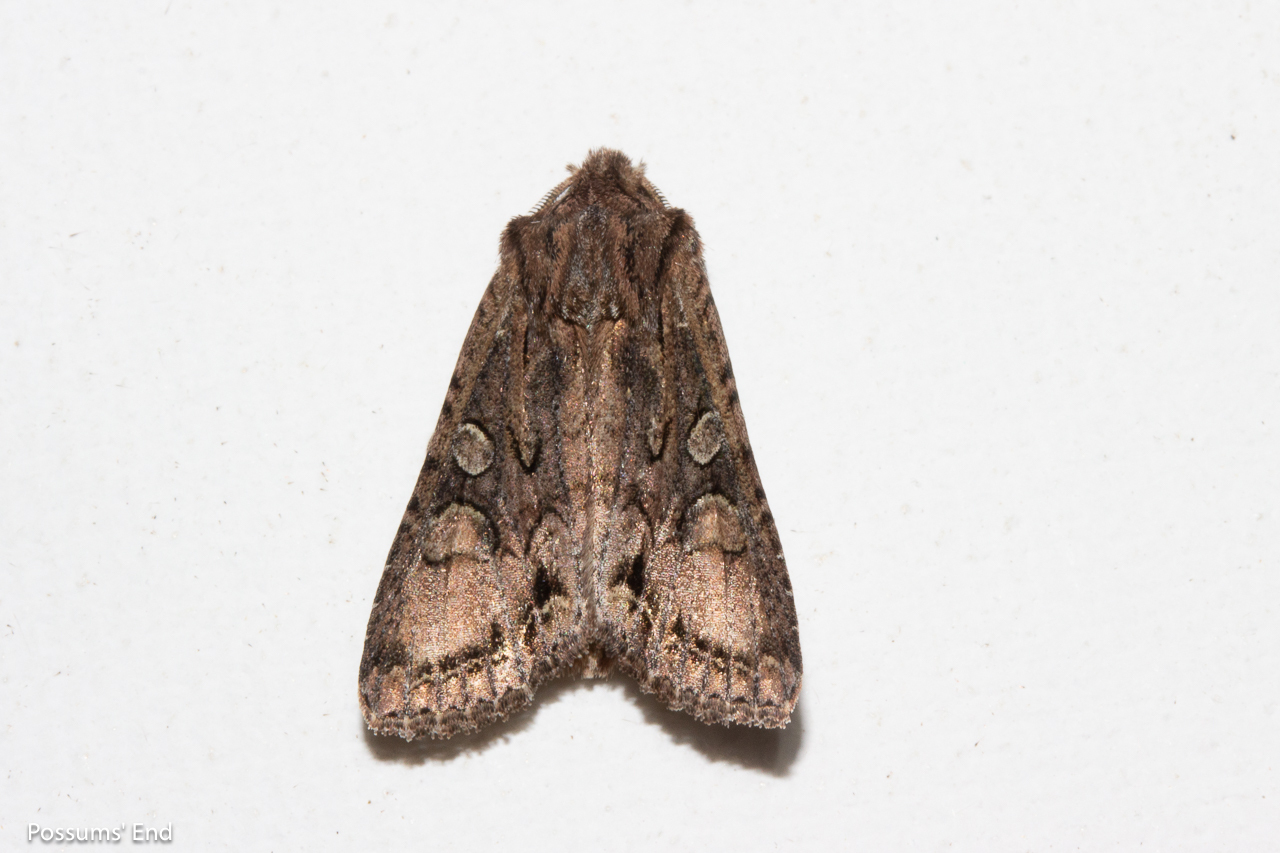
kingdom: Animalia
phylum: Arthropoda
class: Insecta
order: Lepidoptera
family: Noctuidae
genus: Ichneutica
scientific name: Ichneutica mutans
